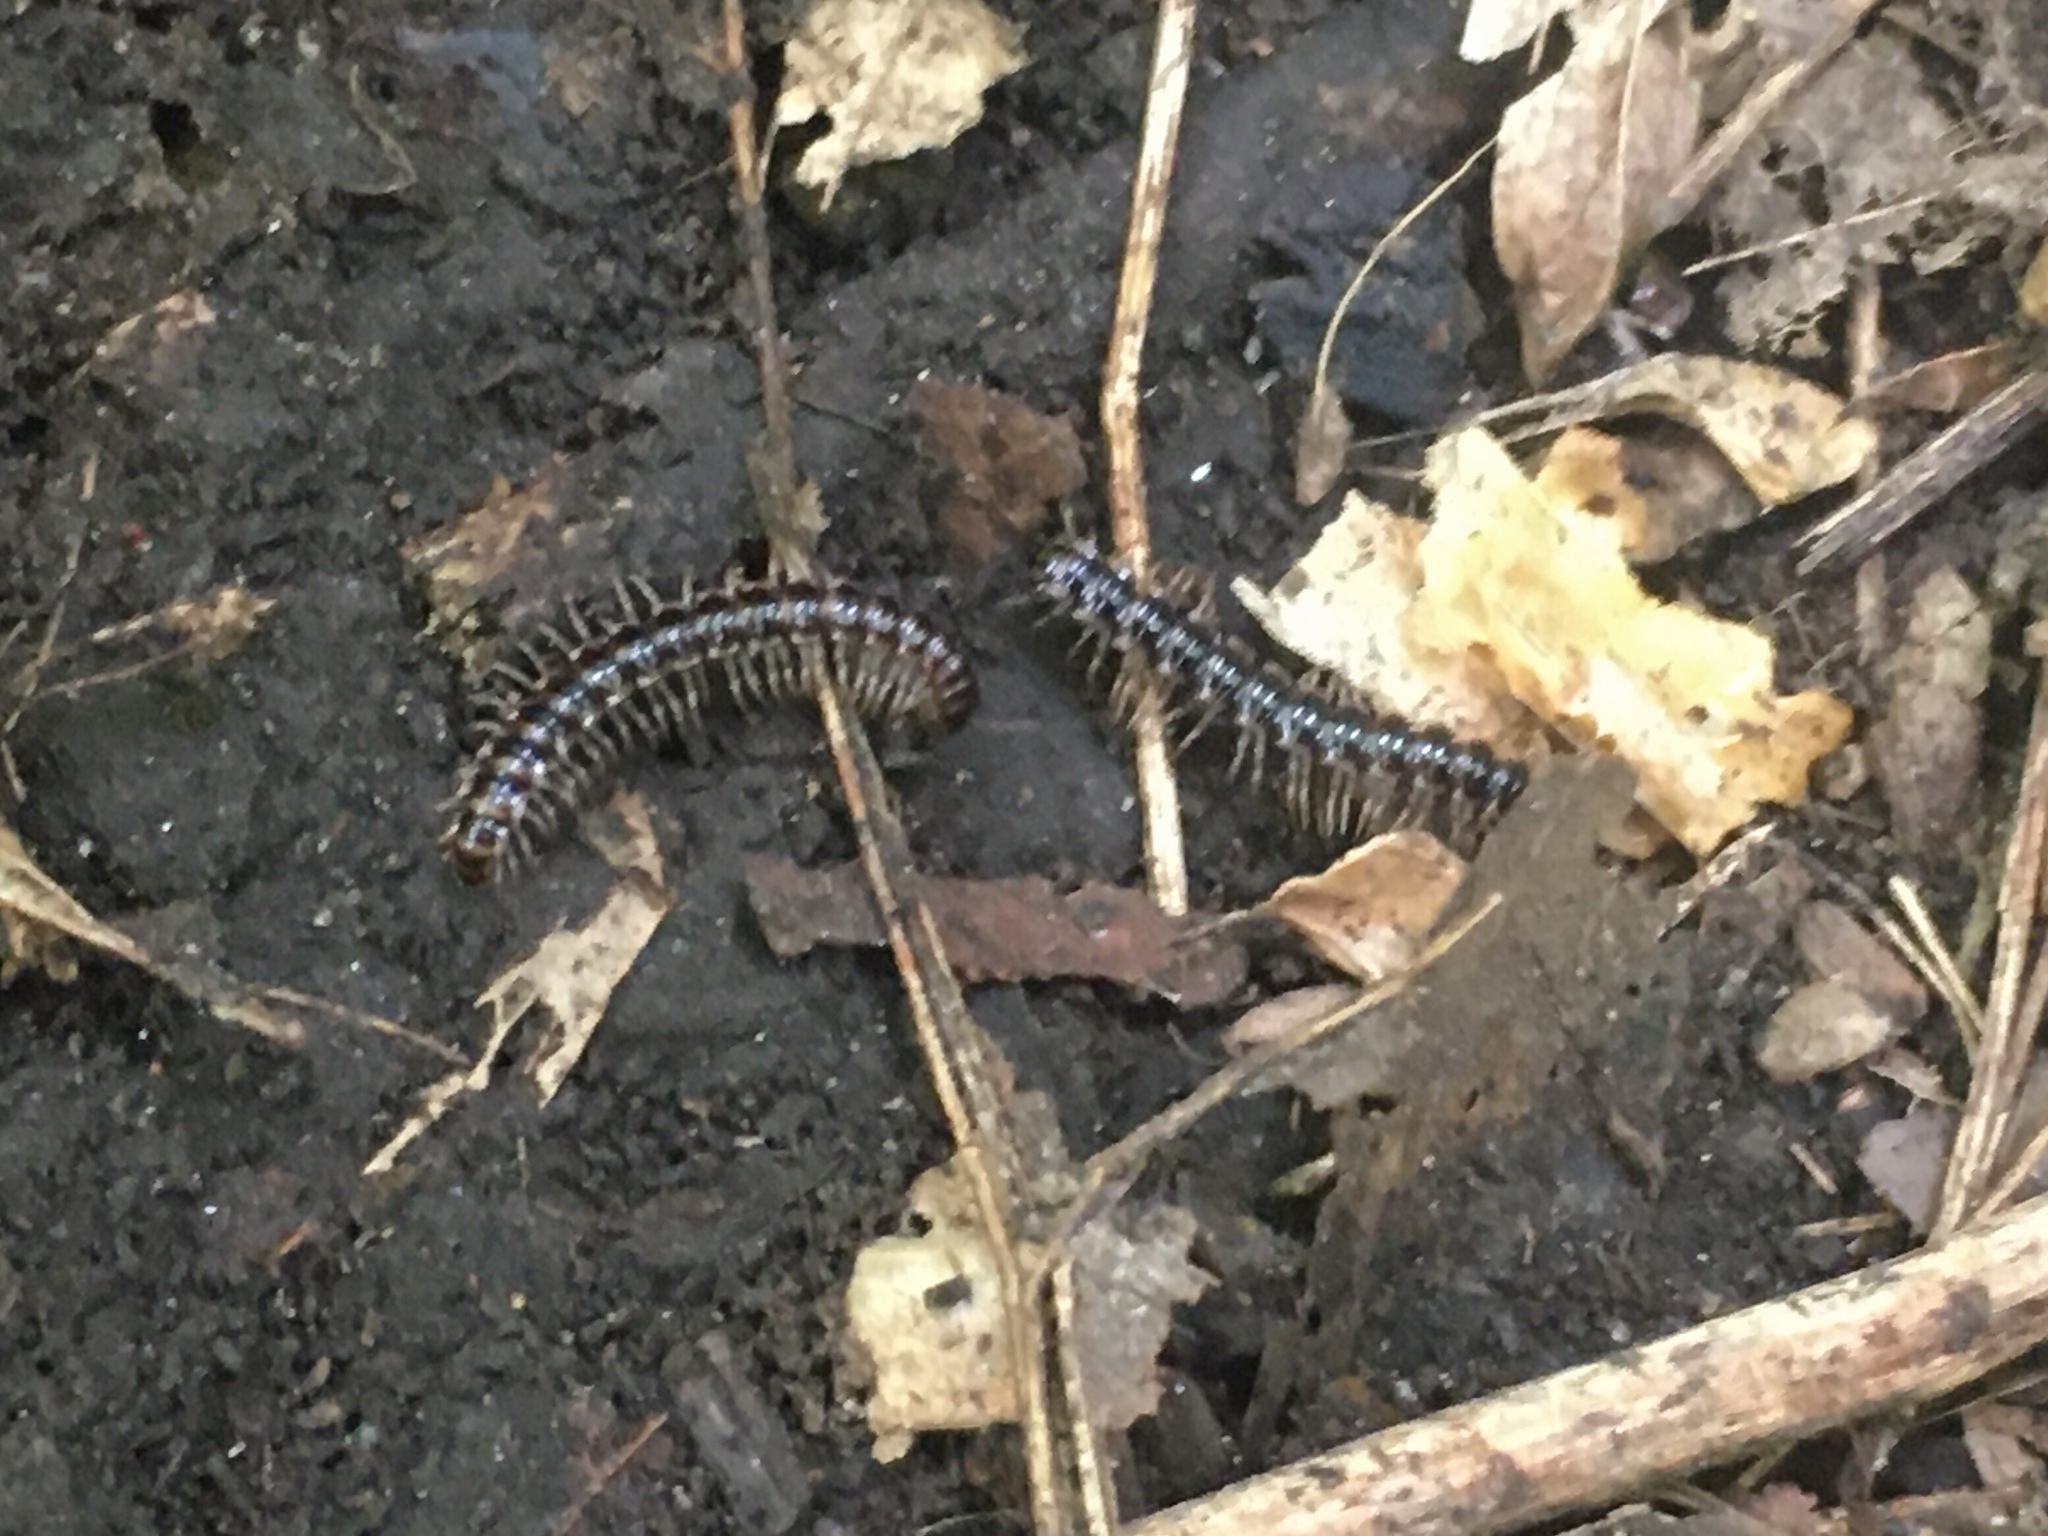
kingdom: Animalia
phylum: Arthropoda
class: Diplopoda
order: Polydesmida
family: Paradoxosomatidae
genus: Oxidus
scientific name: Oxidus gracilis
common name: Greenhouse millipede
